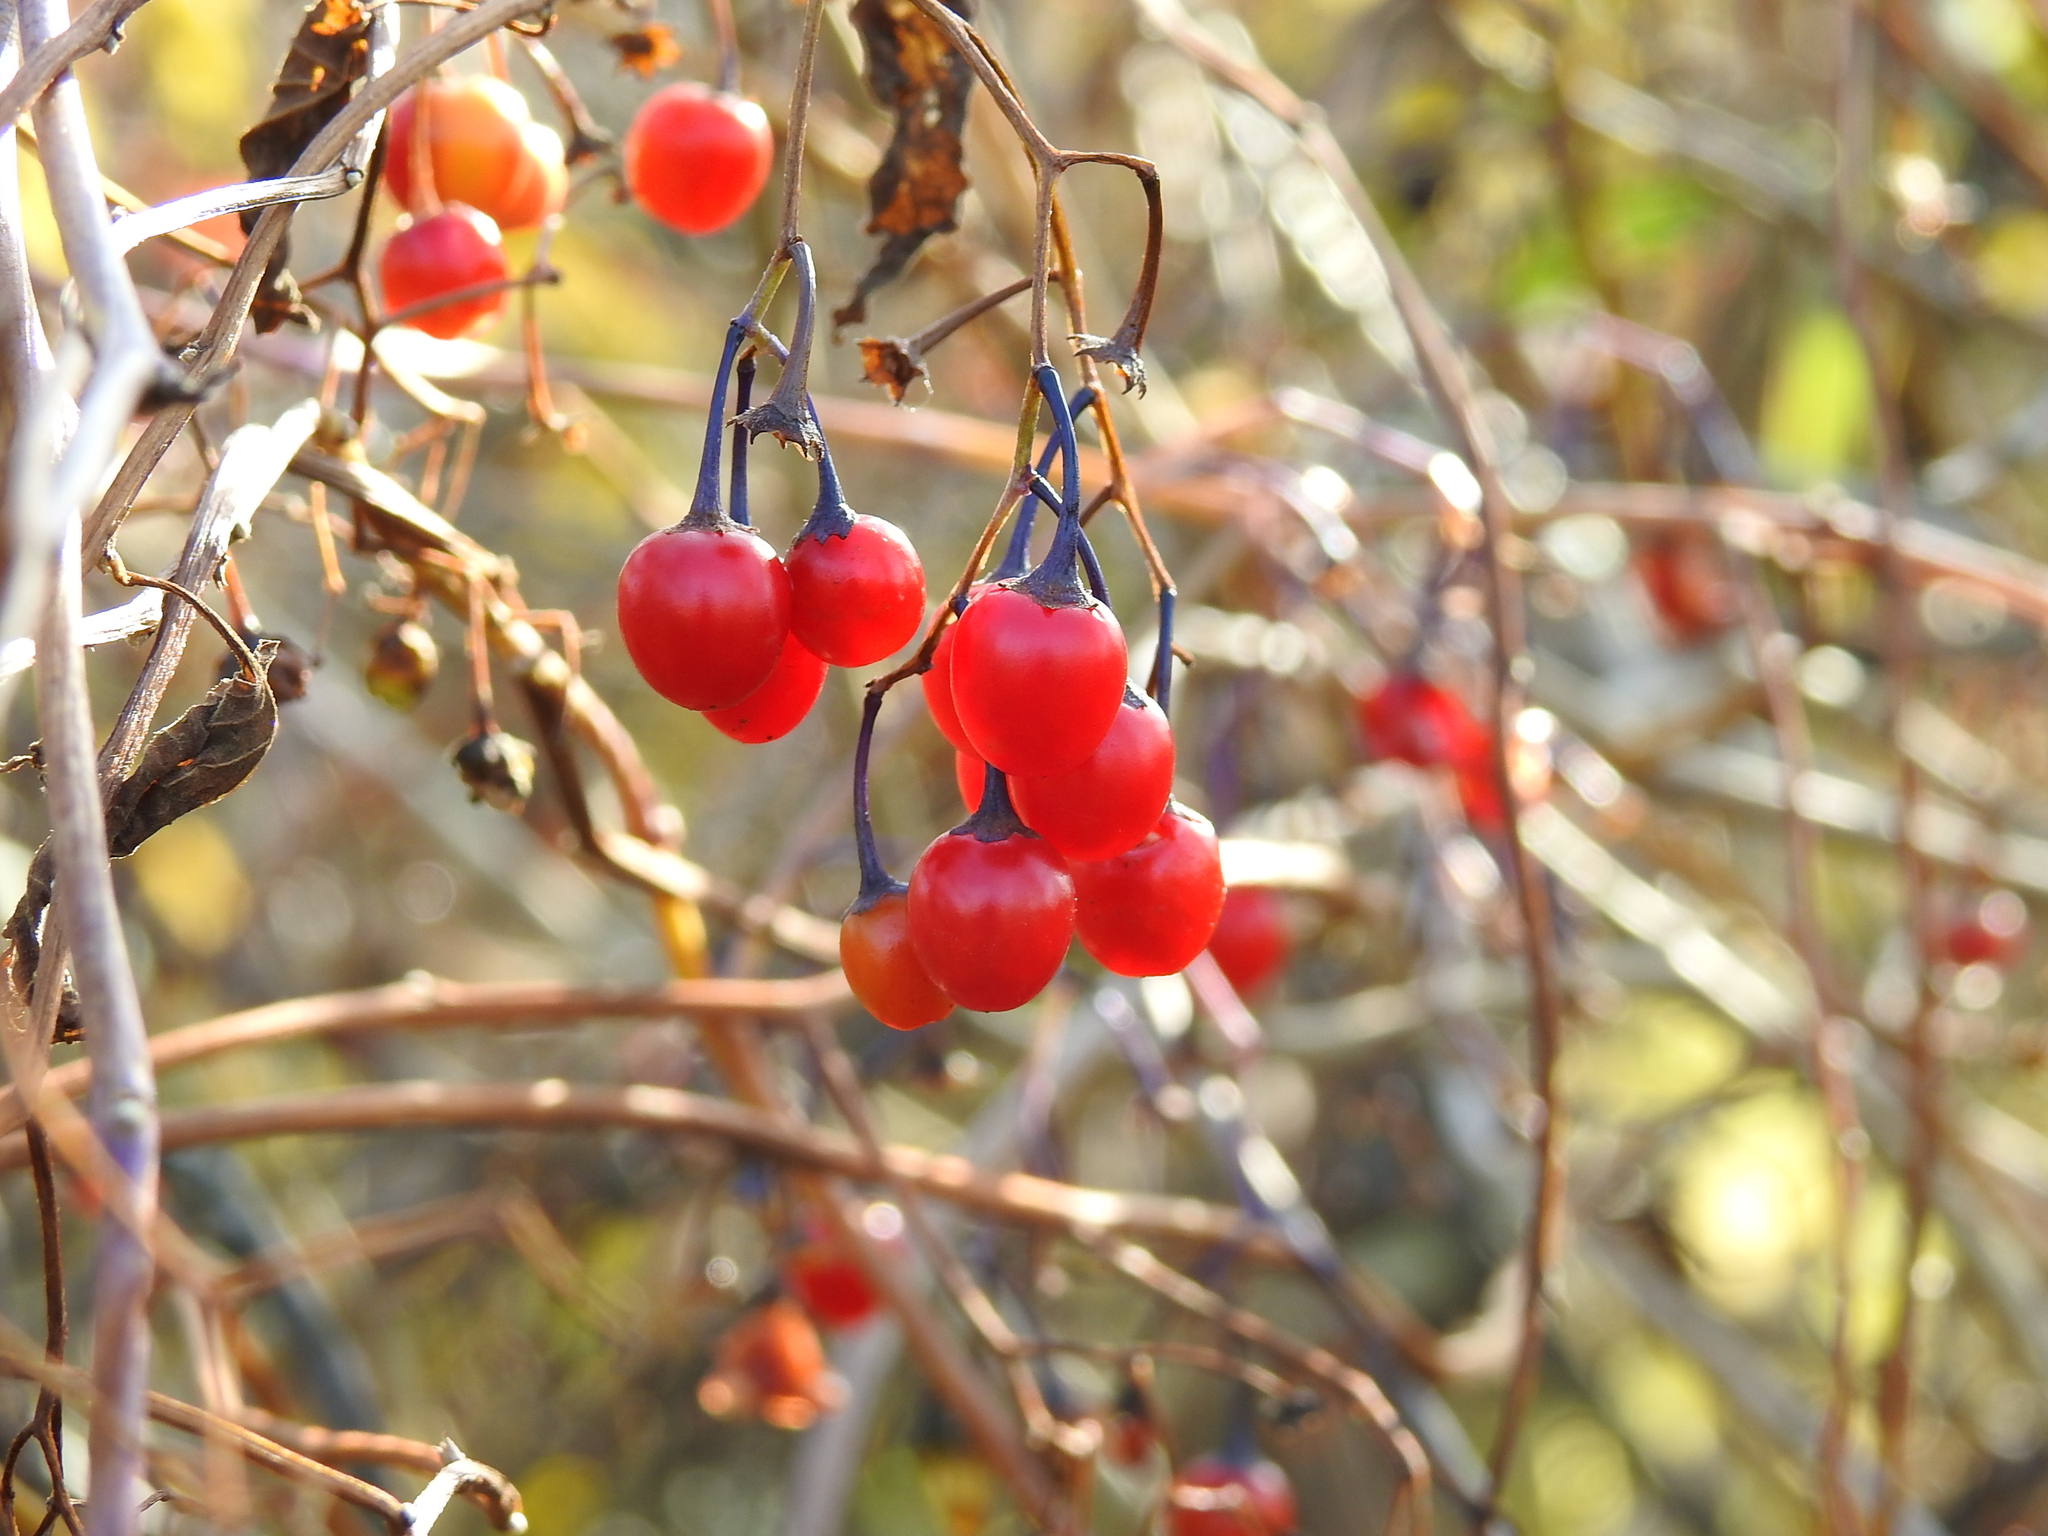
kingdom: Plantae
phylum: Tracheophyta
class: Magnoliopsida
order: Solanales
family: Solanaceae
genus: Solanum
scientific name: Solanum dulcamara
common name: Climbing nightshade
